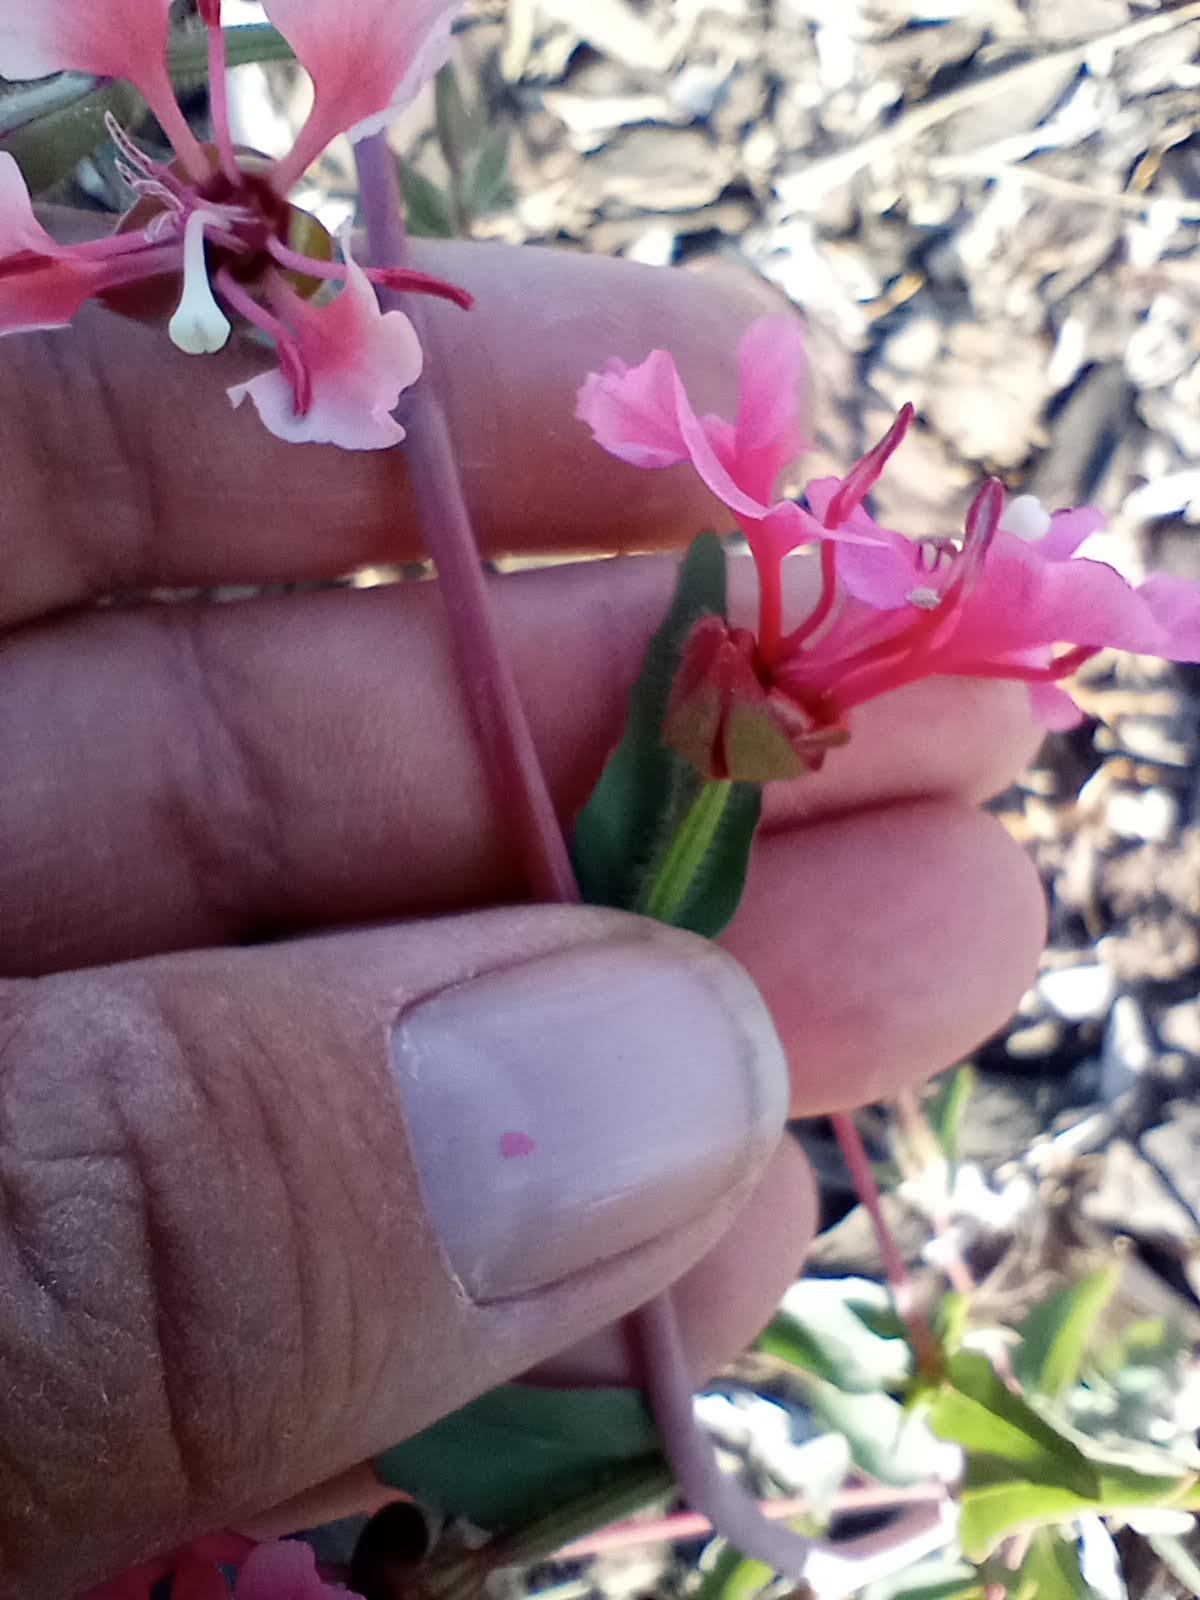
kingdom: Plantae
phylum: Tracheophyta
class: Magnoliopsida
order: Myrtales
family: Onagraceae
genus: Clarkia
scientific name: Clarkia rhomboidea
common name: Broadleaf clarkia
